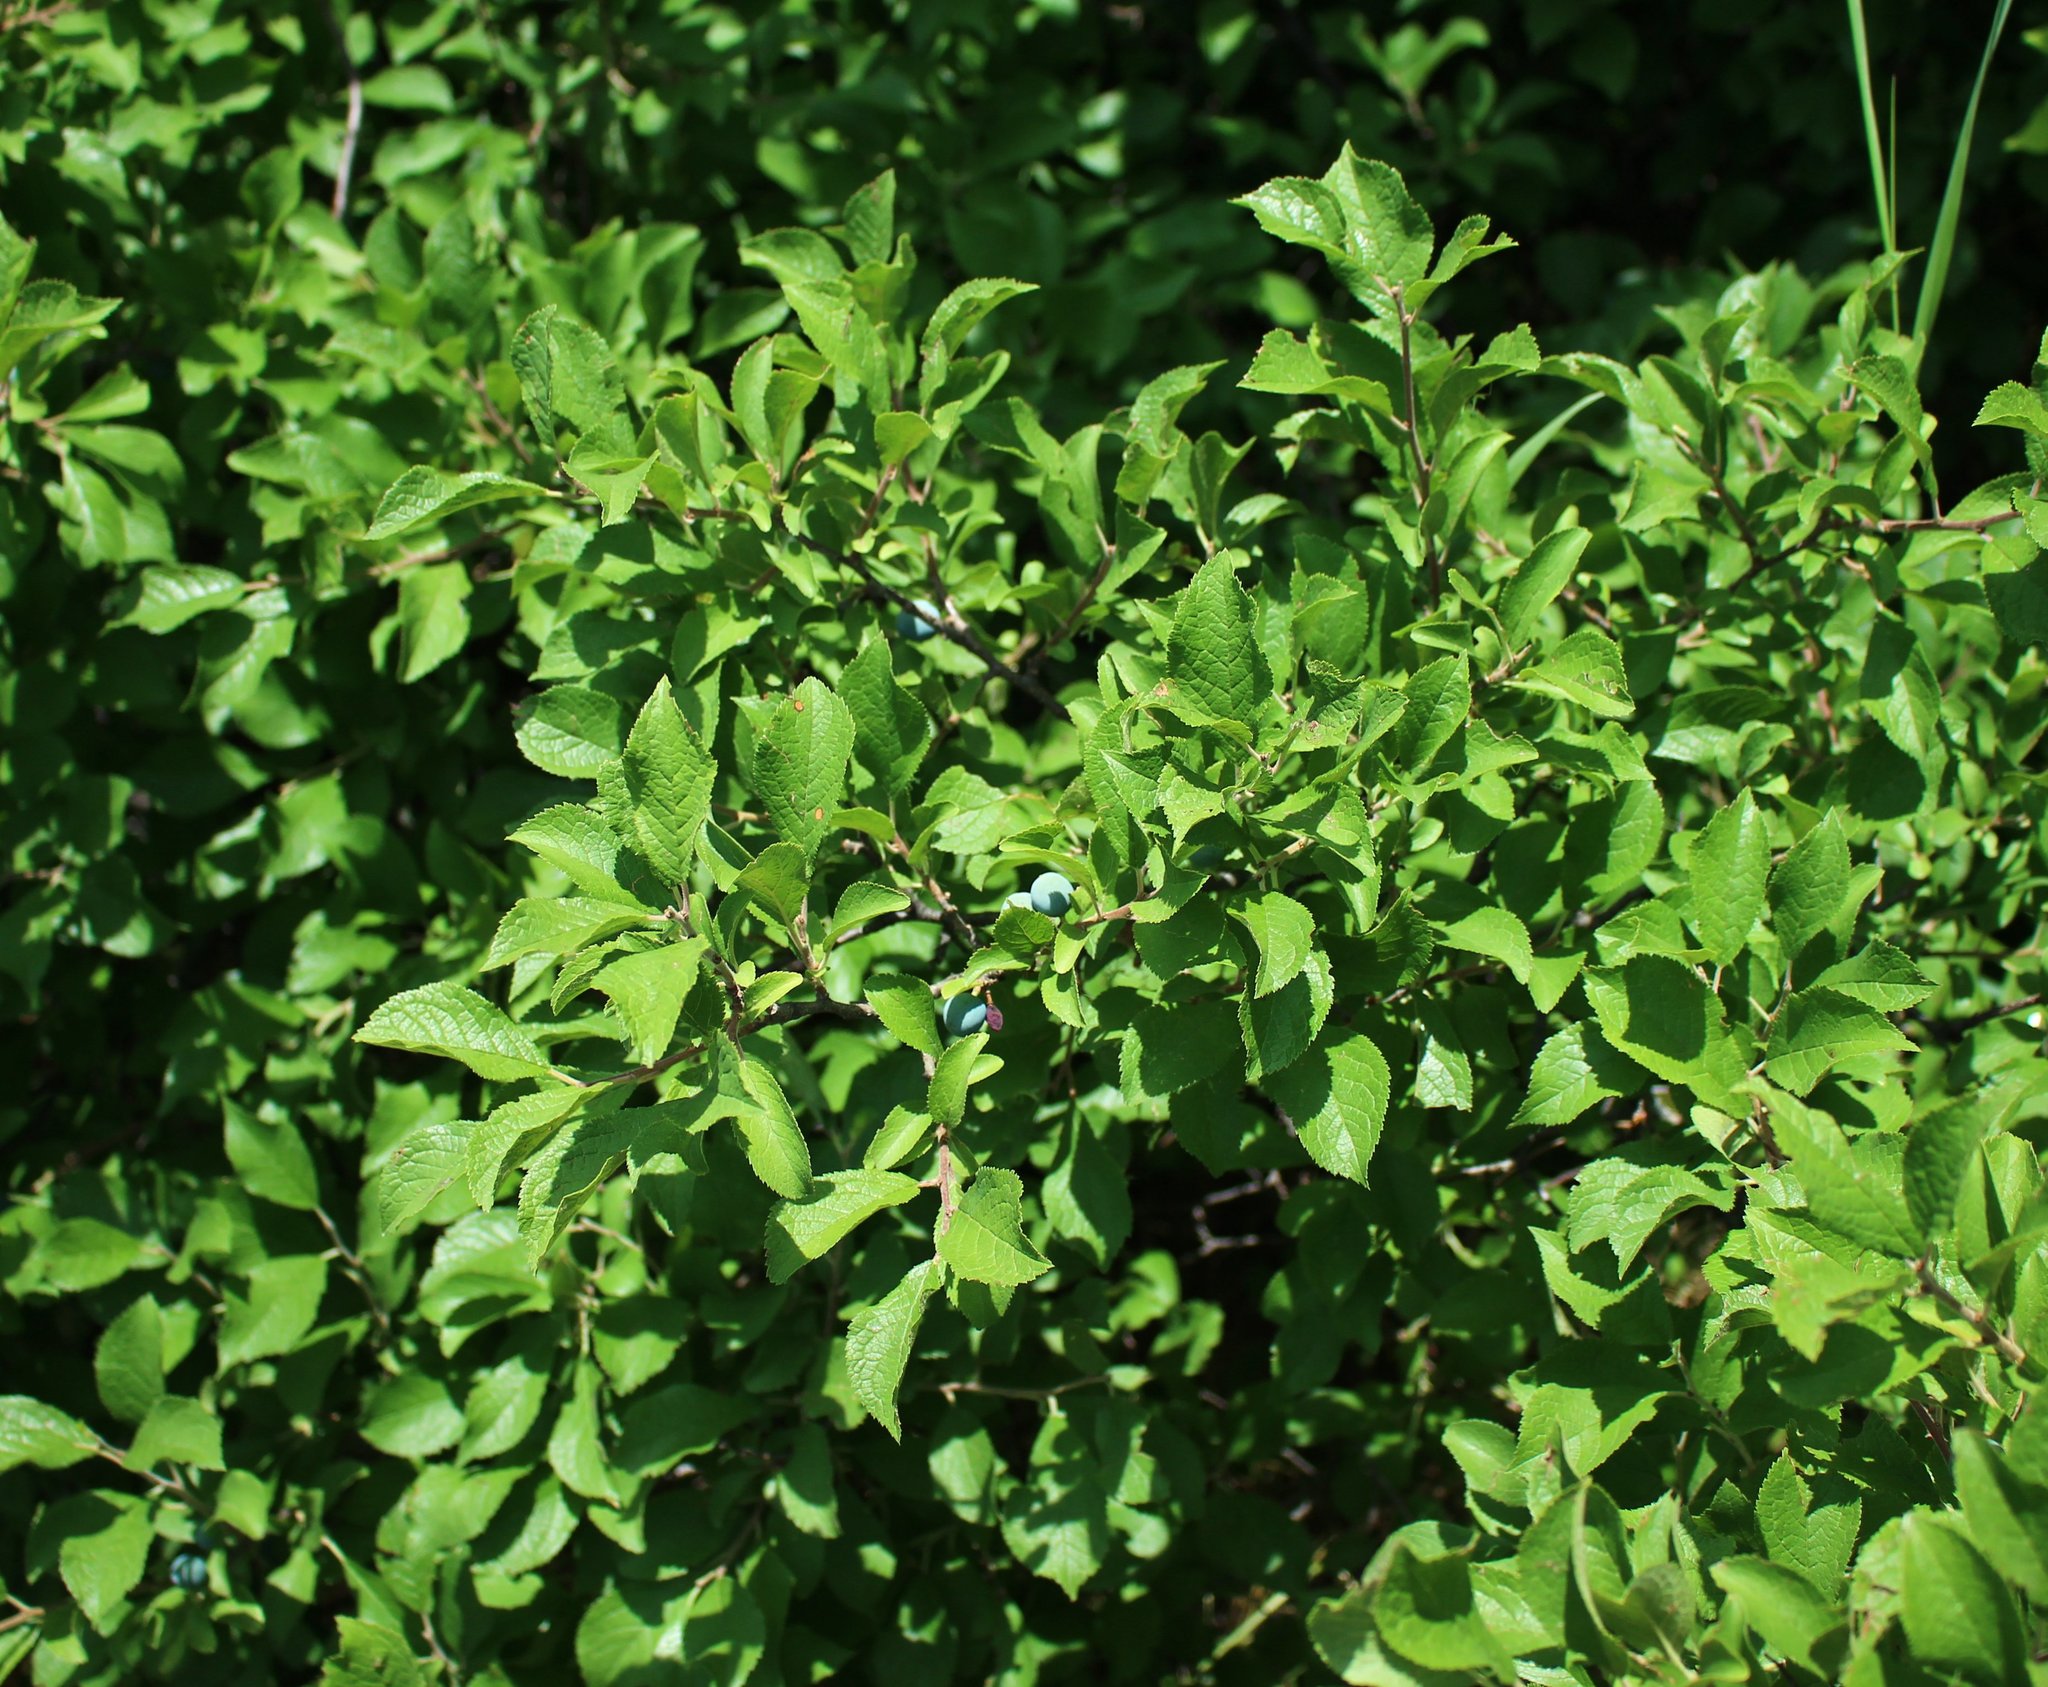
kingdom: Plantae
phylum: Tracheophyta
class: Magnoliopsida
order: Rosales
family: Rosaceae
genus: Prunus
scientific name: Prunus spinosa
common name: Blackthorn
